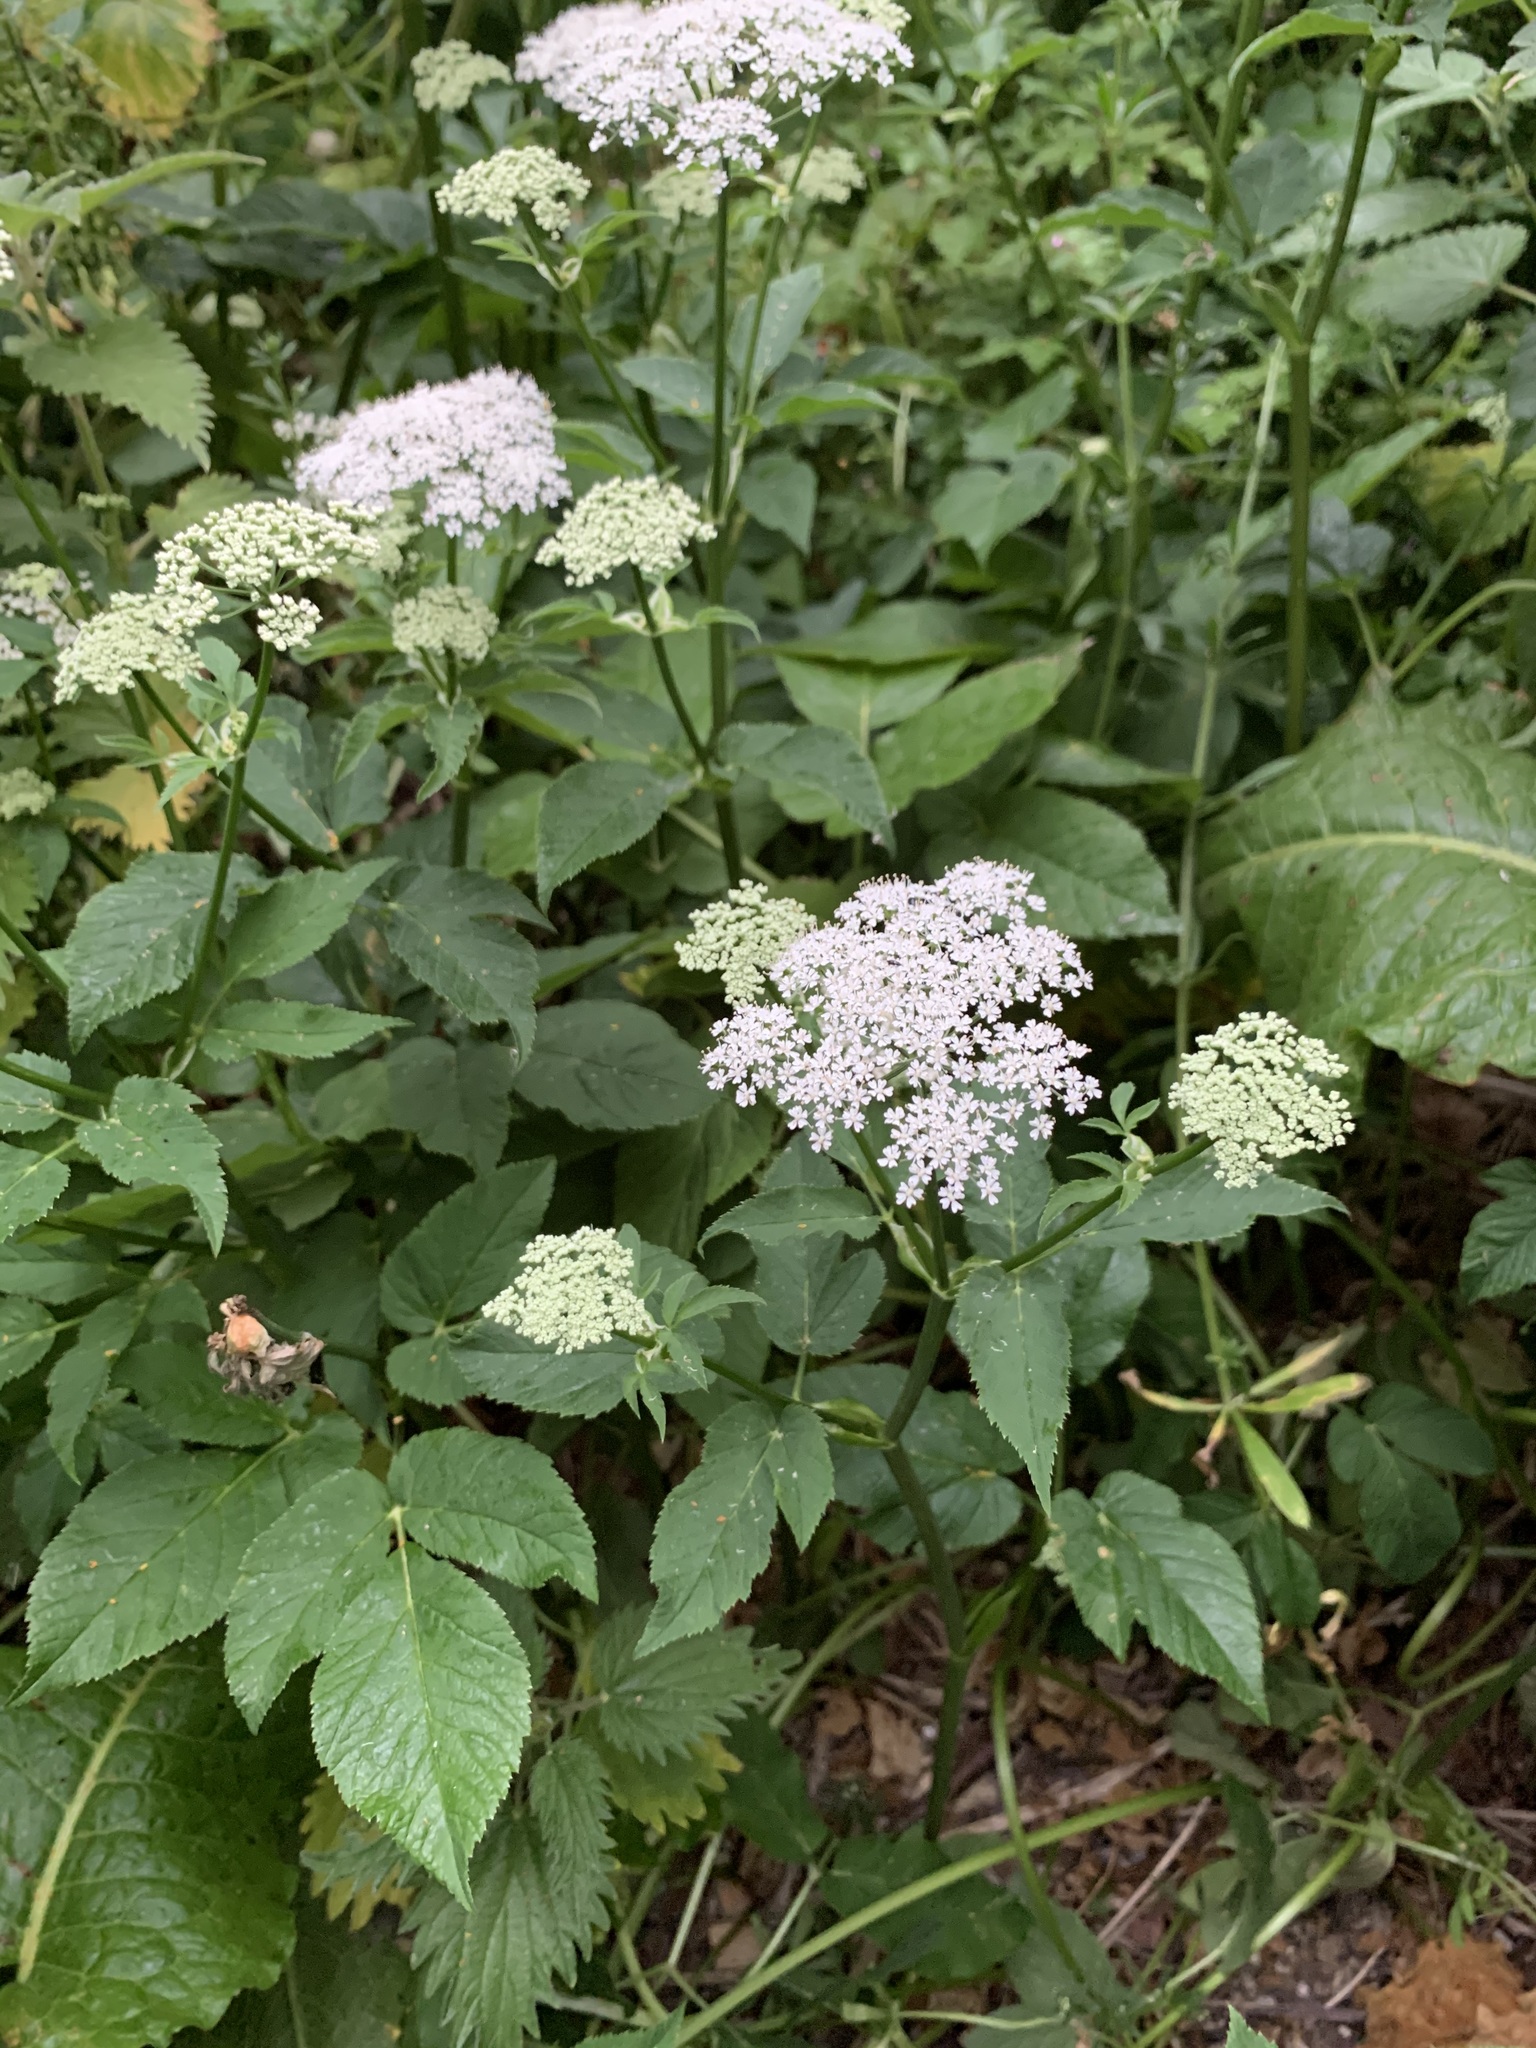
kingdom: Plantae
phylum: Tracheophyta
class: Magnoliopsida
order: Apiales
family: Apiaceae
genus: Aegopodium
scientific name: Aegopodium podagraria
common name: Ground-elder
